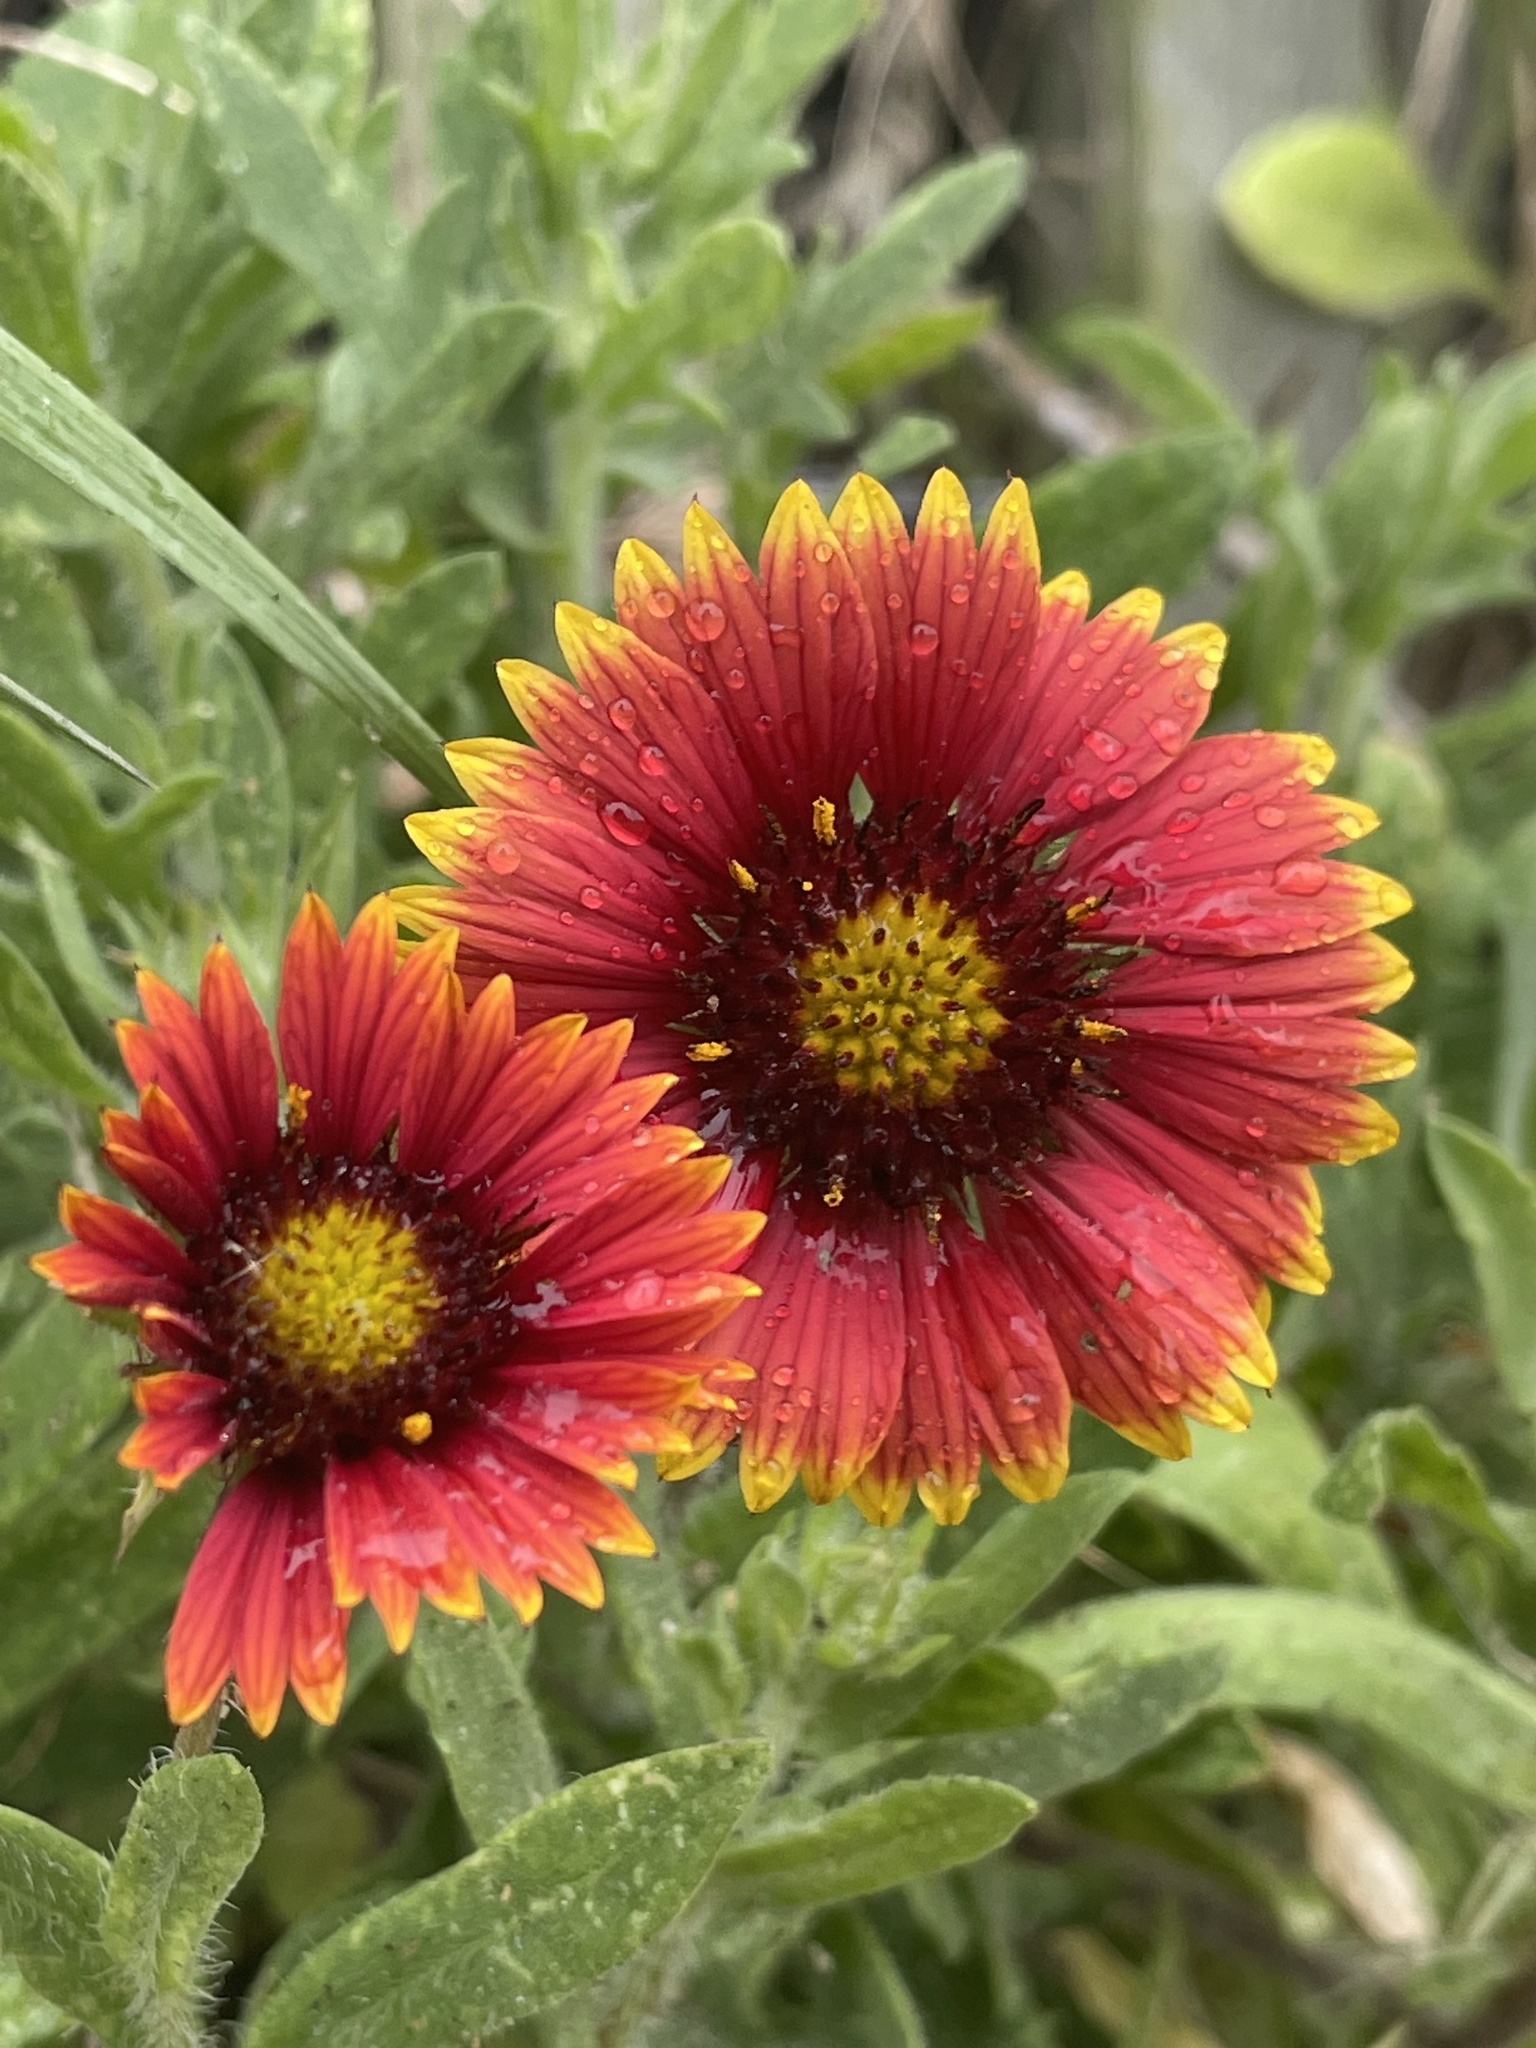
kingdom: Plantae
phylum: Tracheophyta
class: Magnoliopsida
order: Asterales
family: Asteraceae
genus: Gaillardia
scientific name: Gaillardia pulchella
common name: Firewheel
